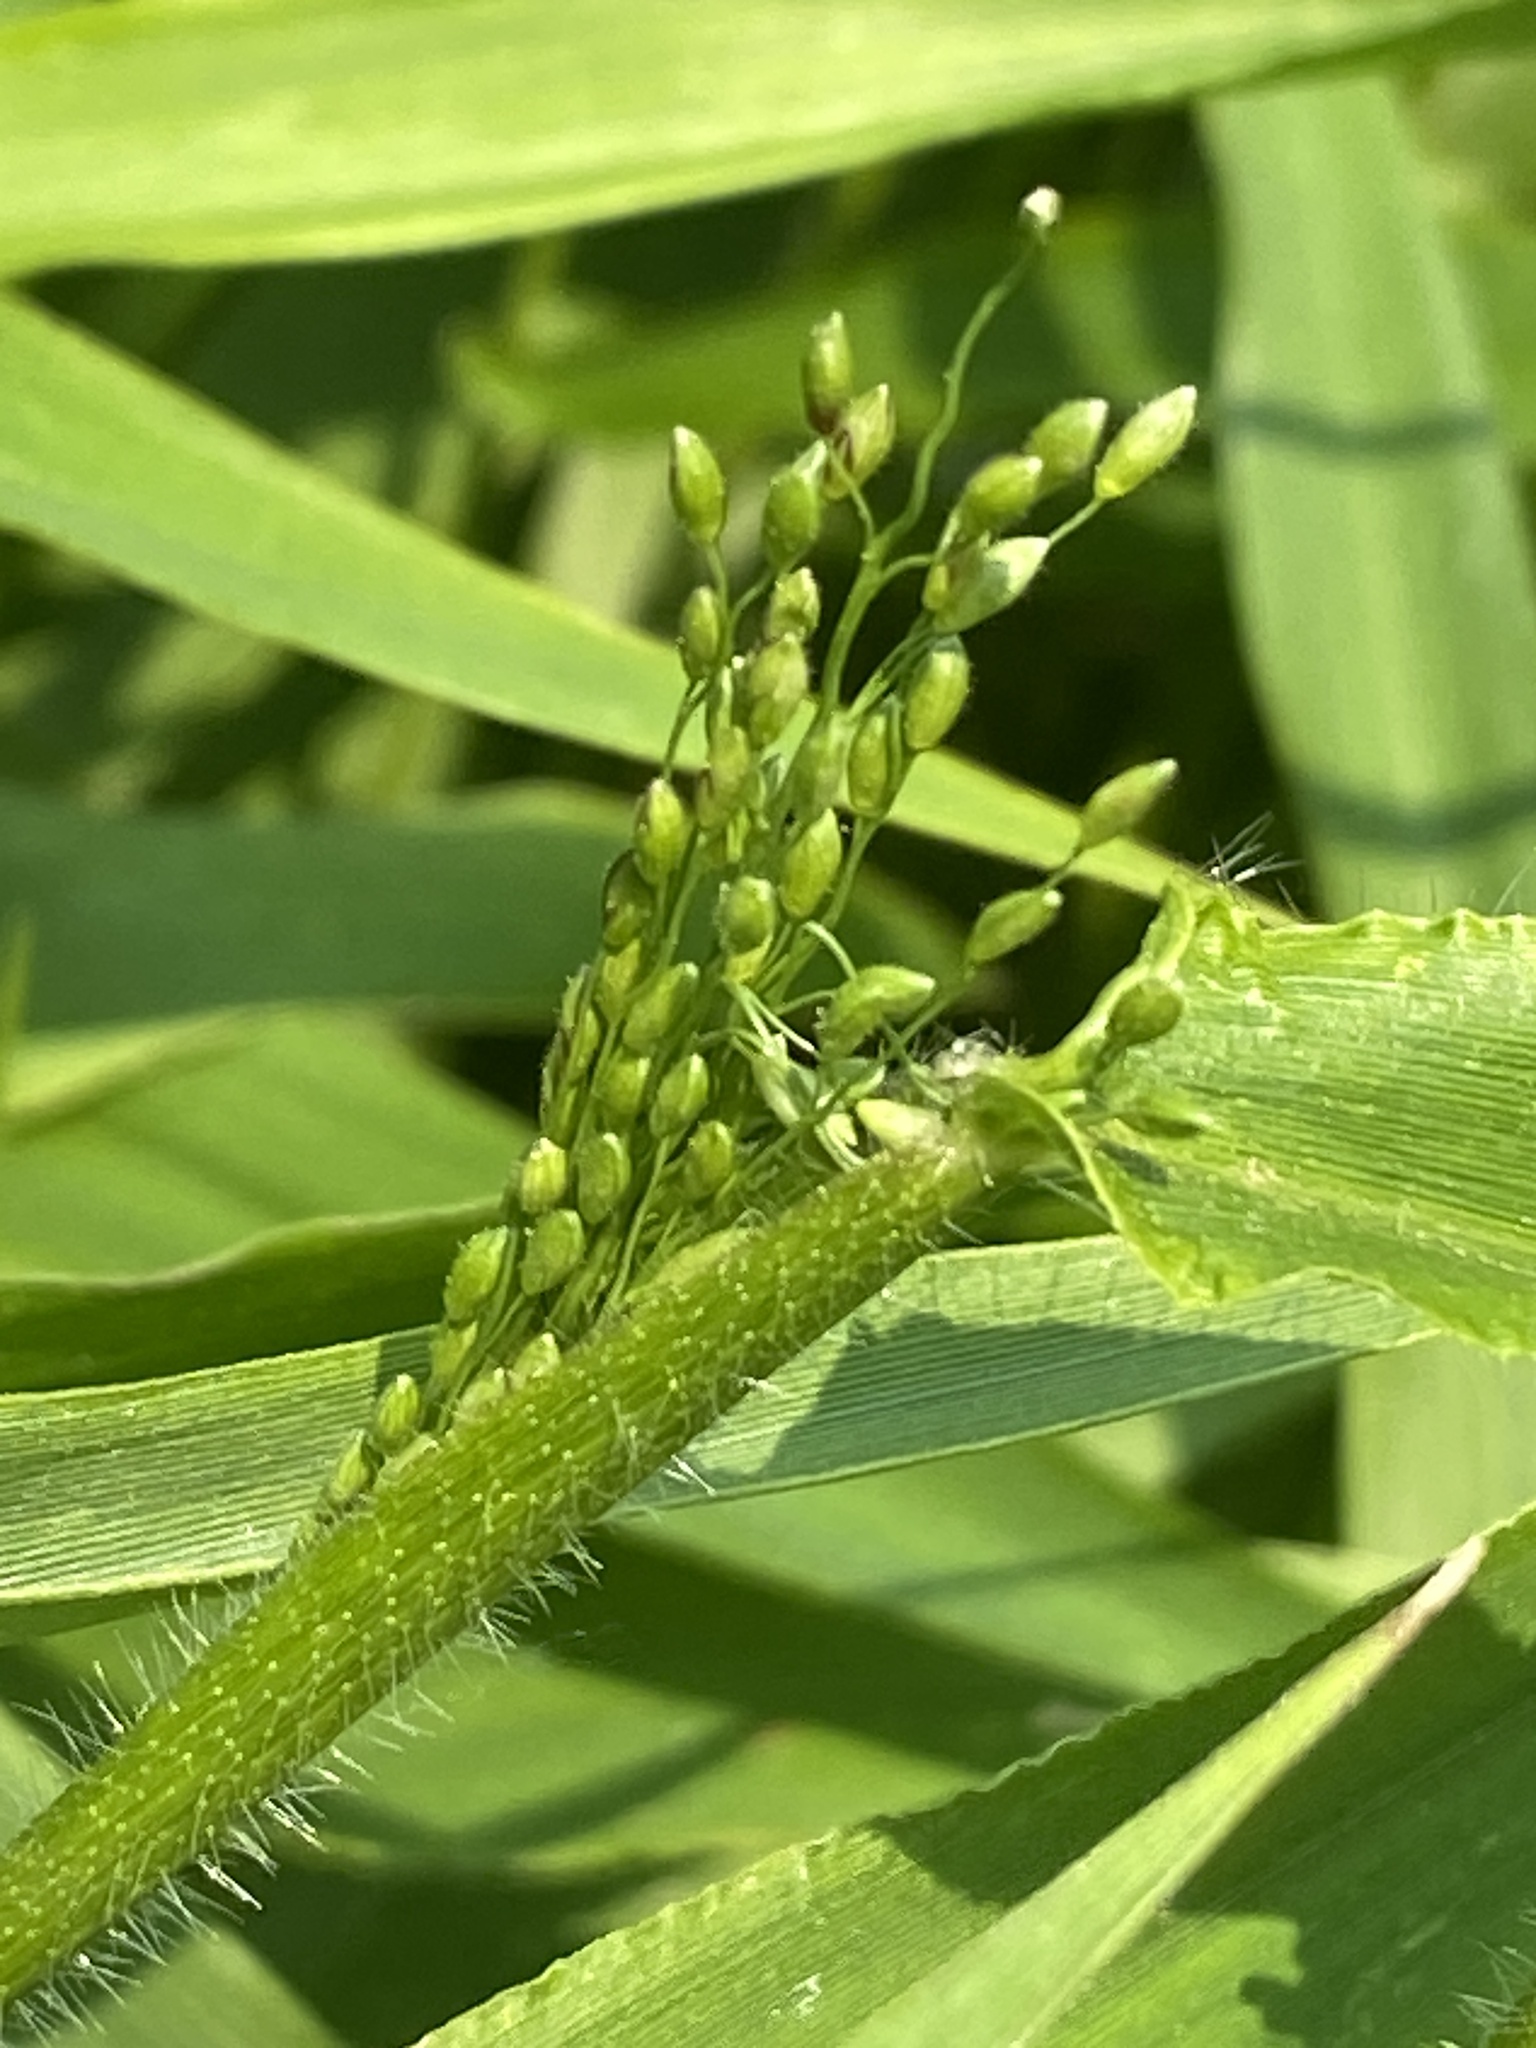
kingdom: Plantae
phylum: Tracheophyta
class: Liliopsida
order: Poales
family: Poaceae
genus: Dichanthelium
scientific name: Dichanthelium clandestinum
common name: Deer-tongue grass
